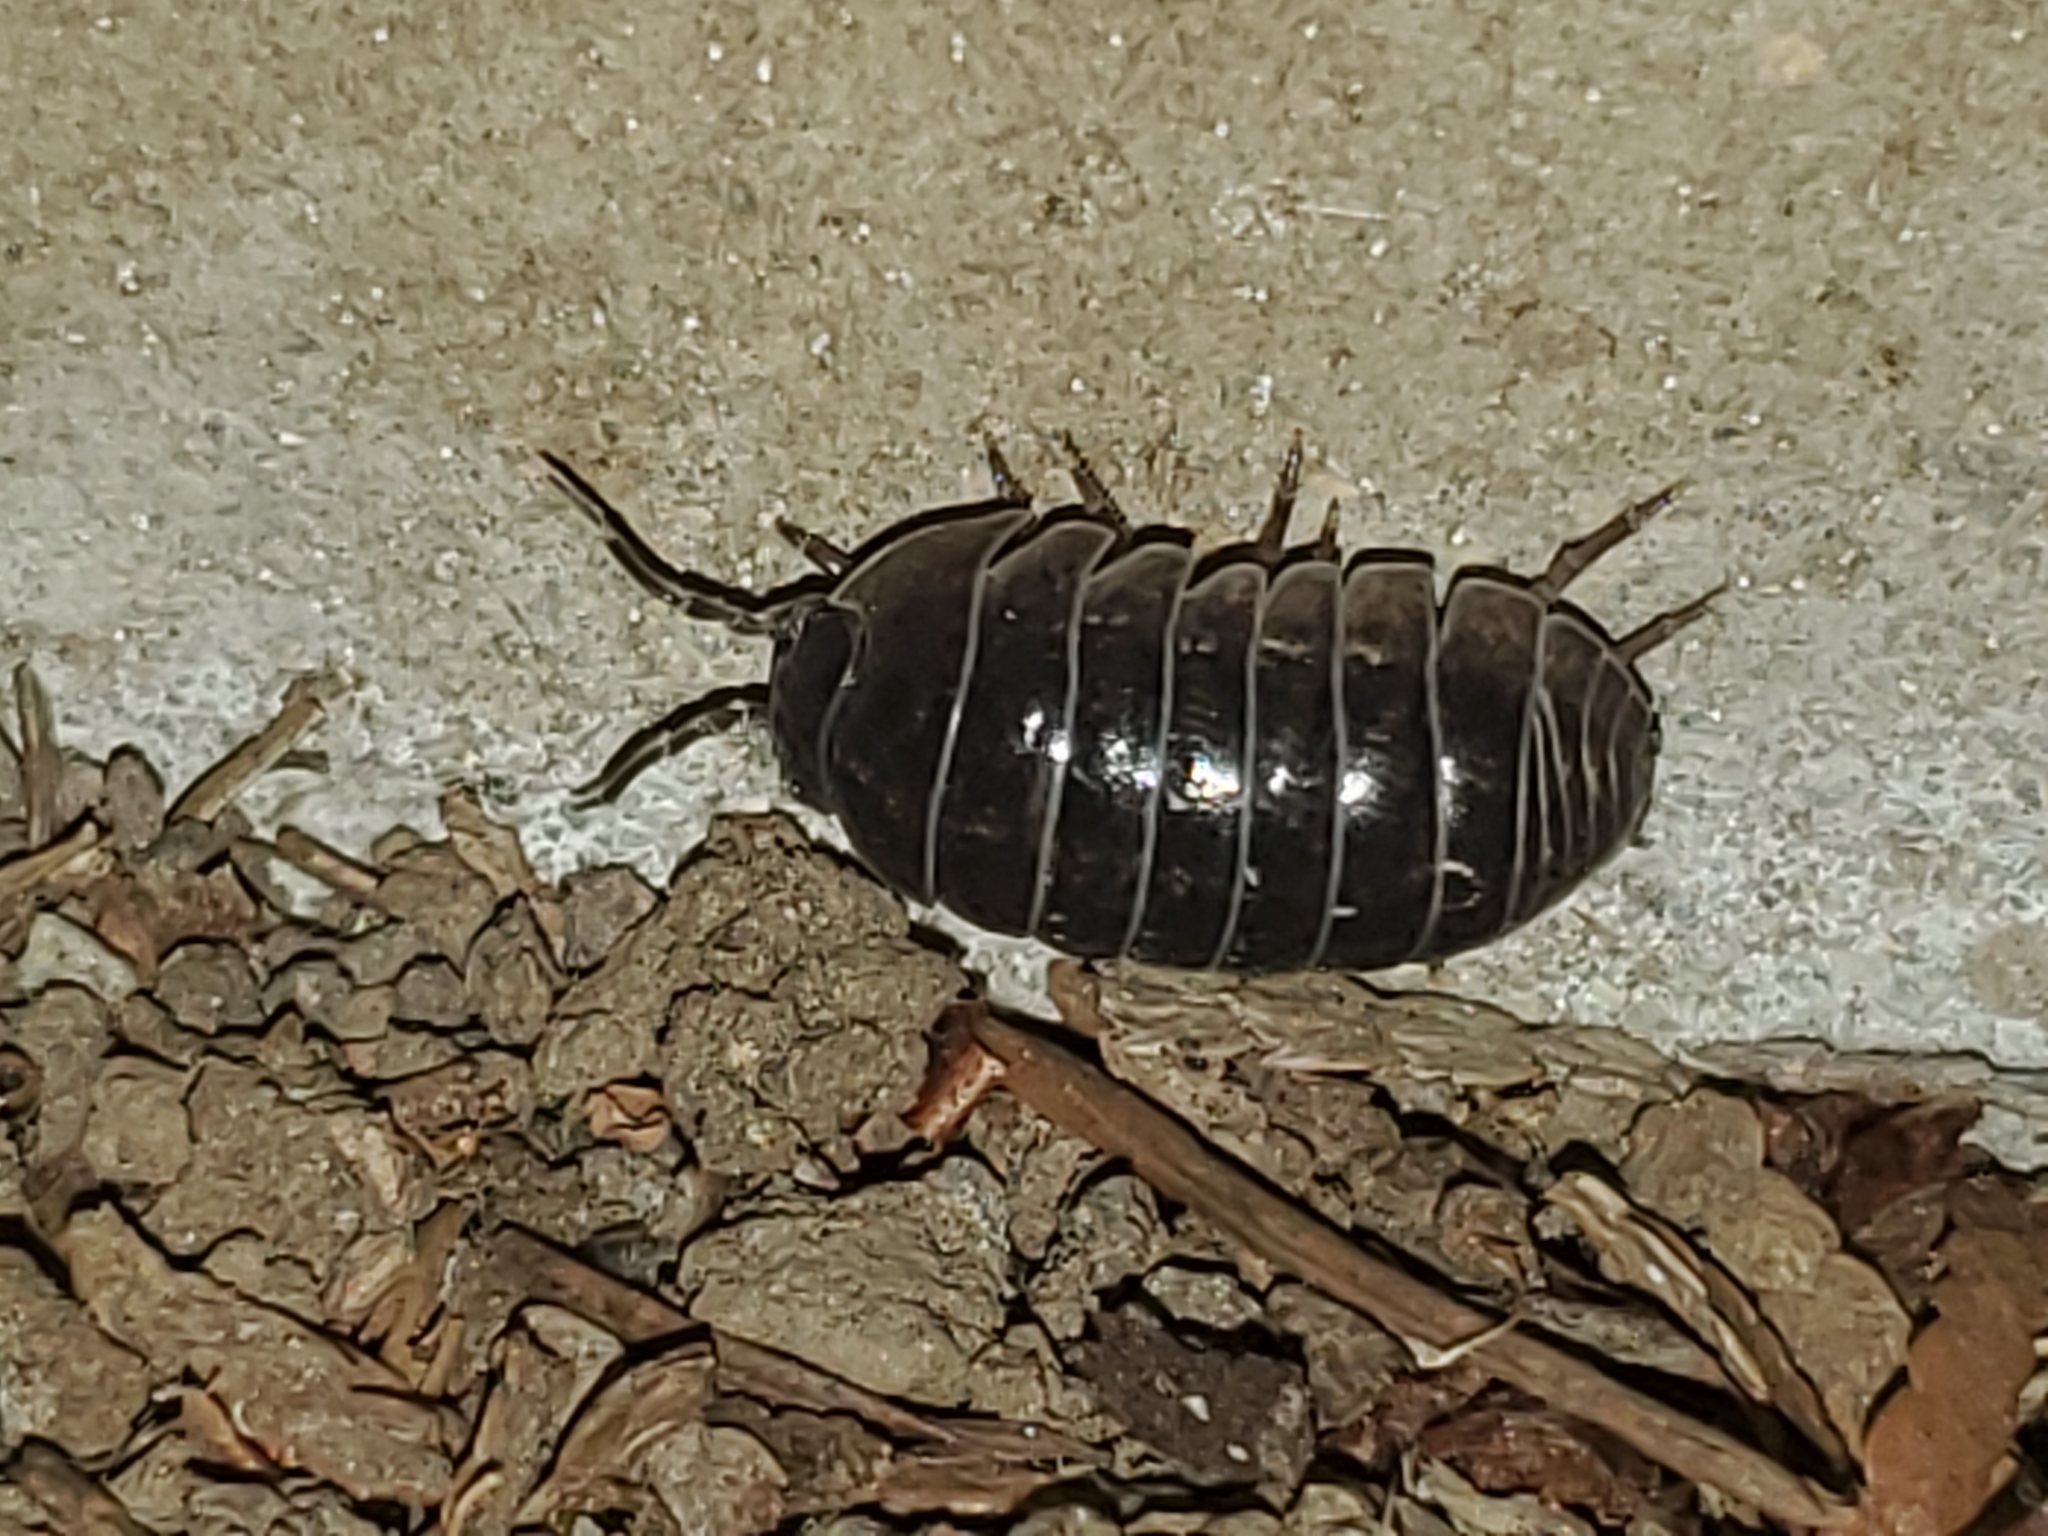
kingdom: Animalia
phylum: Arthropoda
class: Malacostraca
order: Isopoda
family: Armadillidiidae
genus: Armadillidium
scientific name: Armadillidium vulgare
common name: Common pill woodlouse
